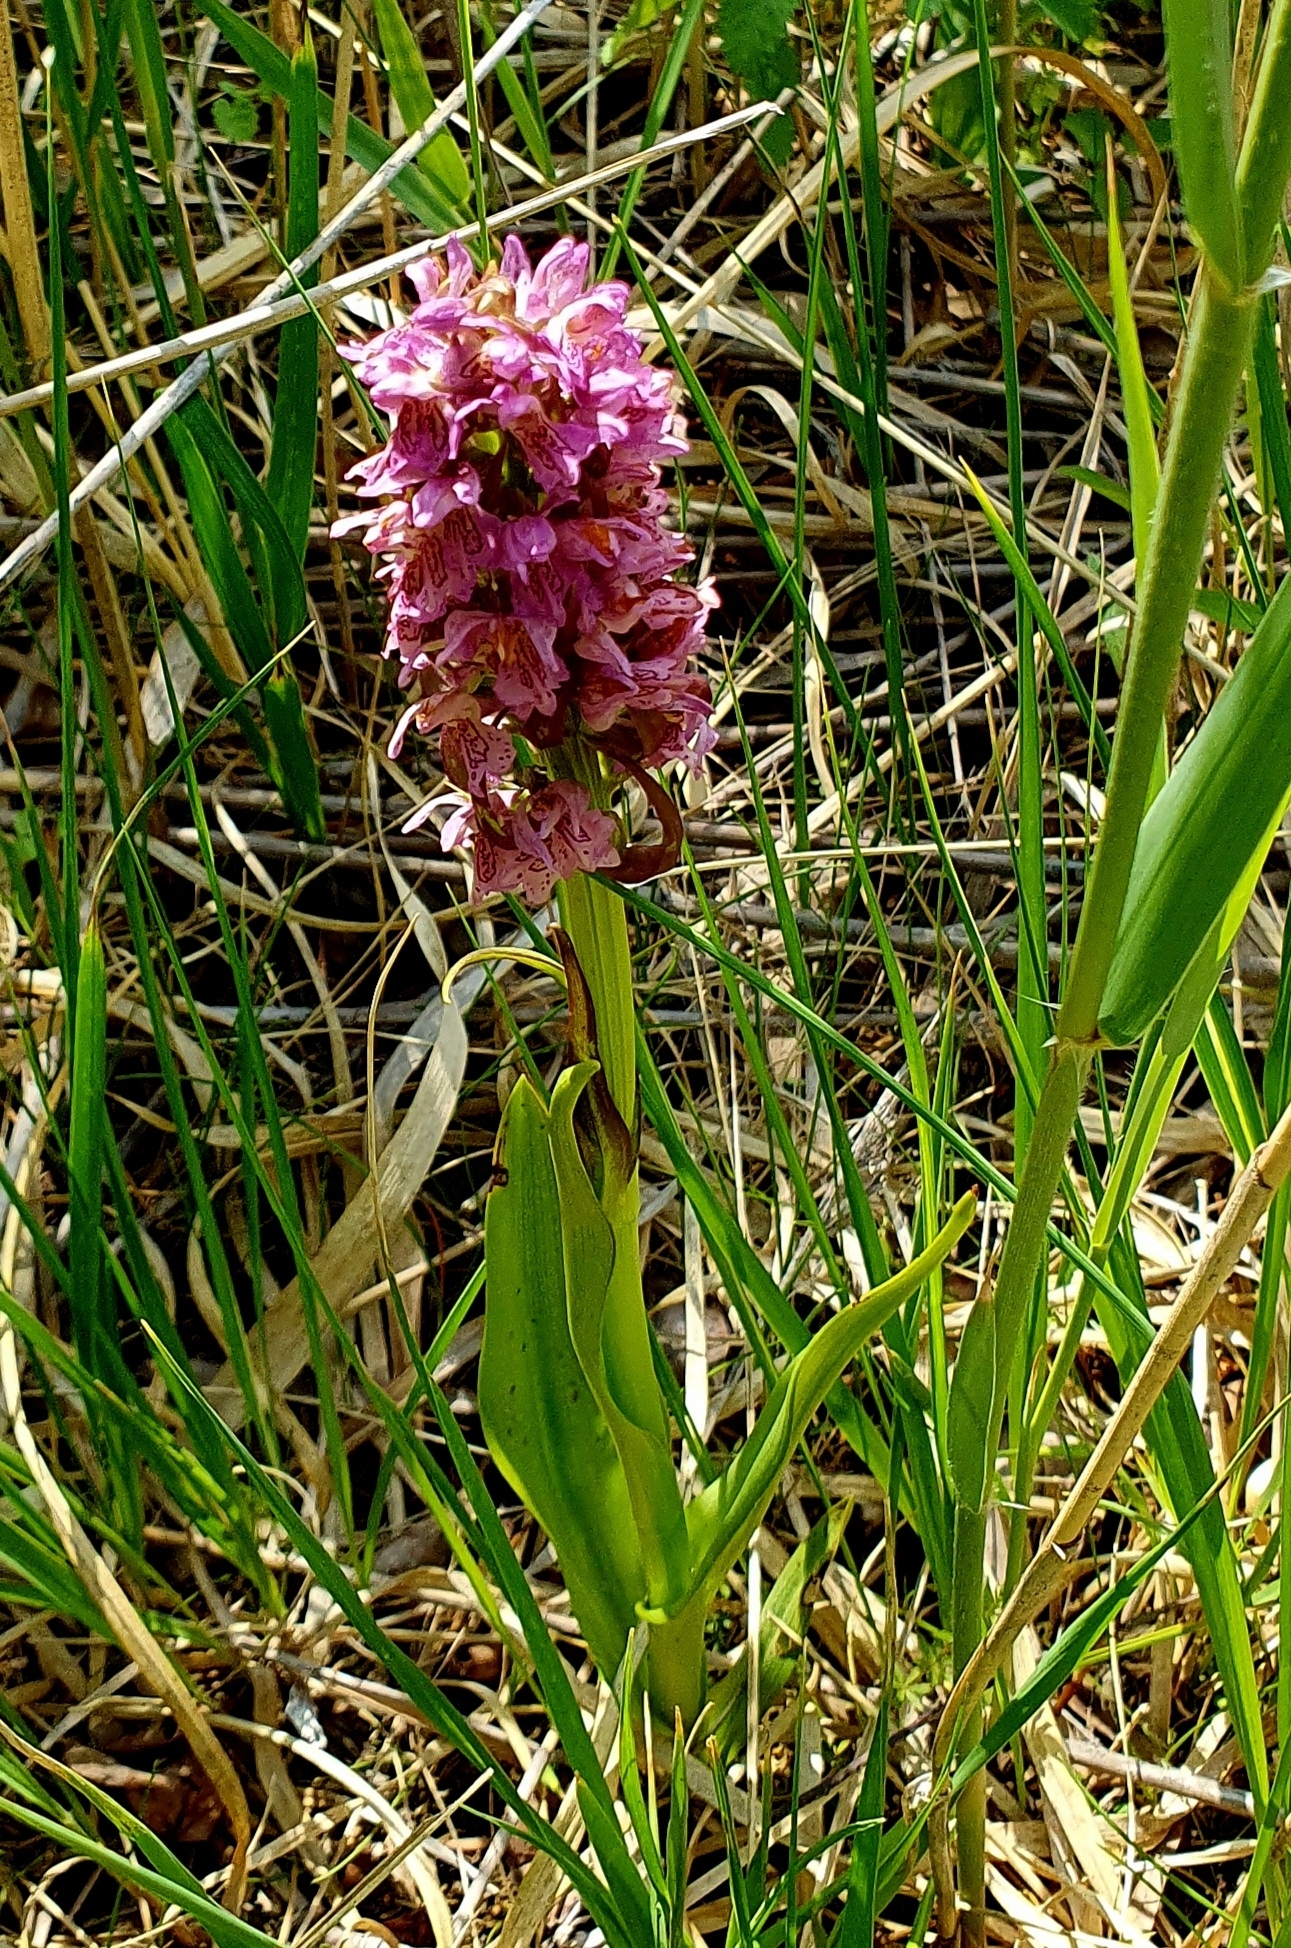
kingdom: Plantae
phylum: Tracheophyta
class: Liliopsida
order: Asparagales
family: Orchidaceae
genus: Dactylorhiza
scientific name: Dactylorhiza incarnata
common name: Early marsh-orchid
